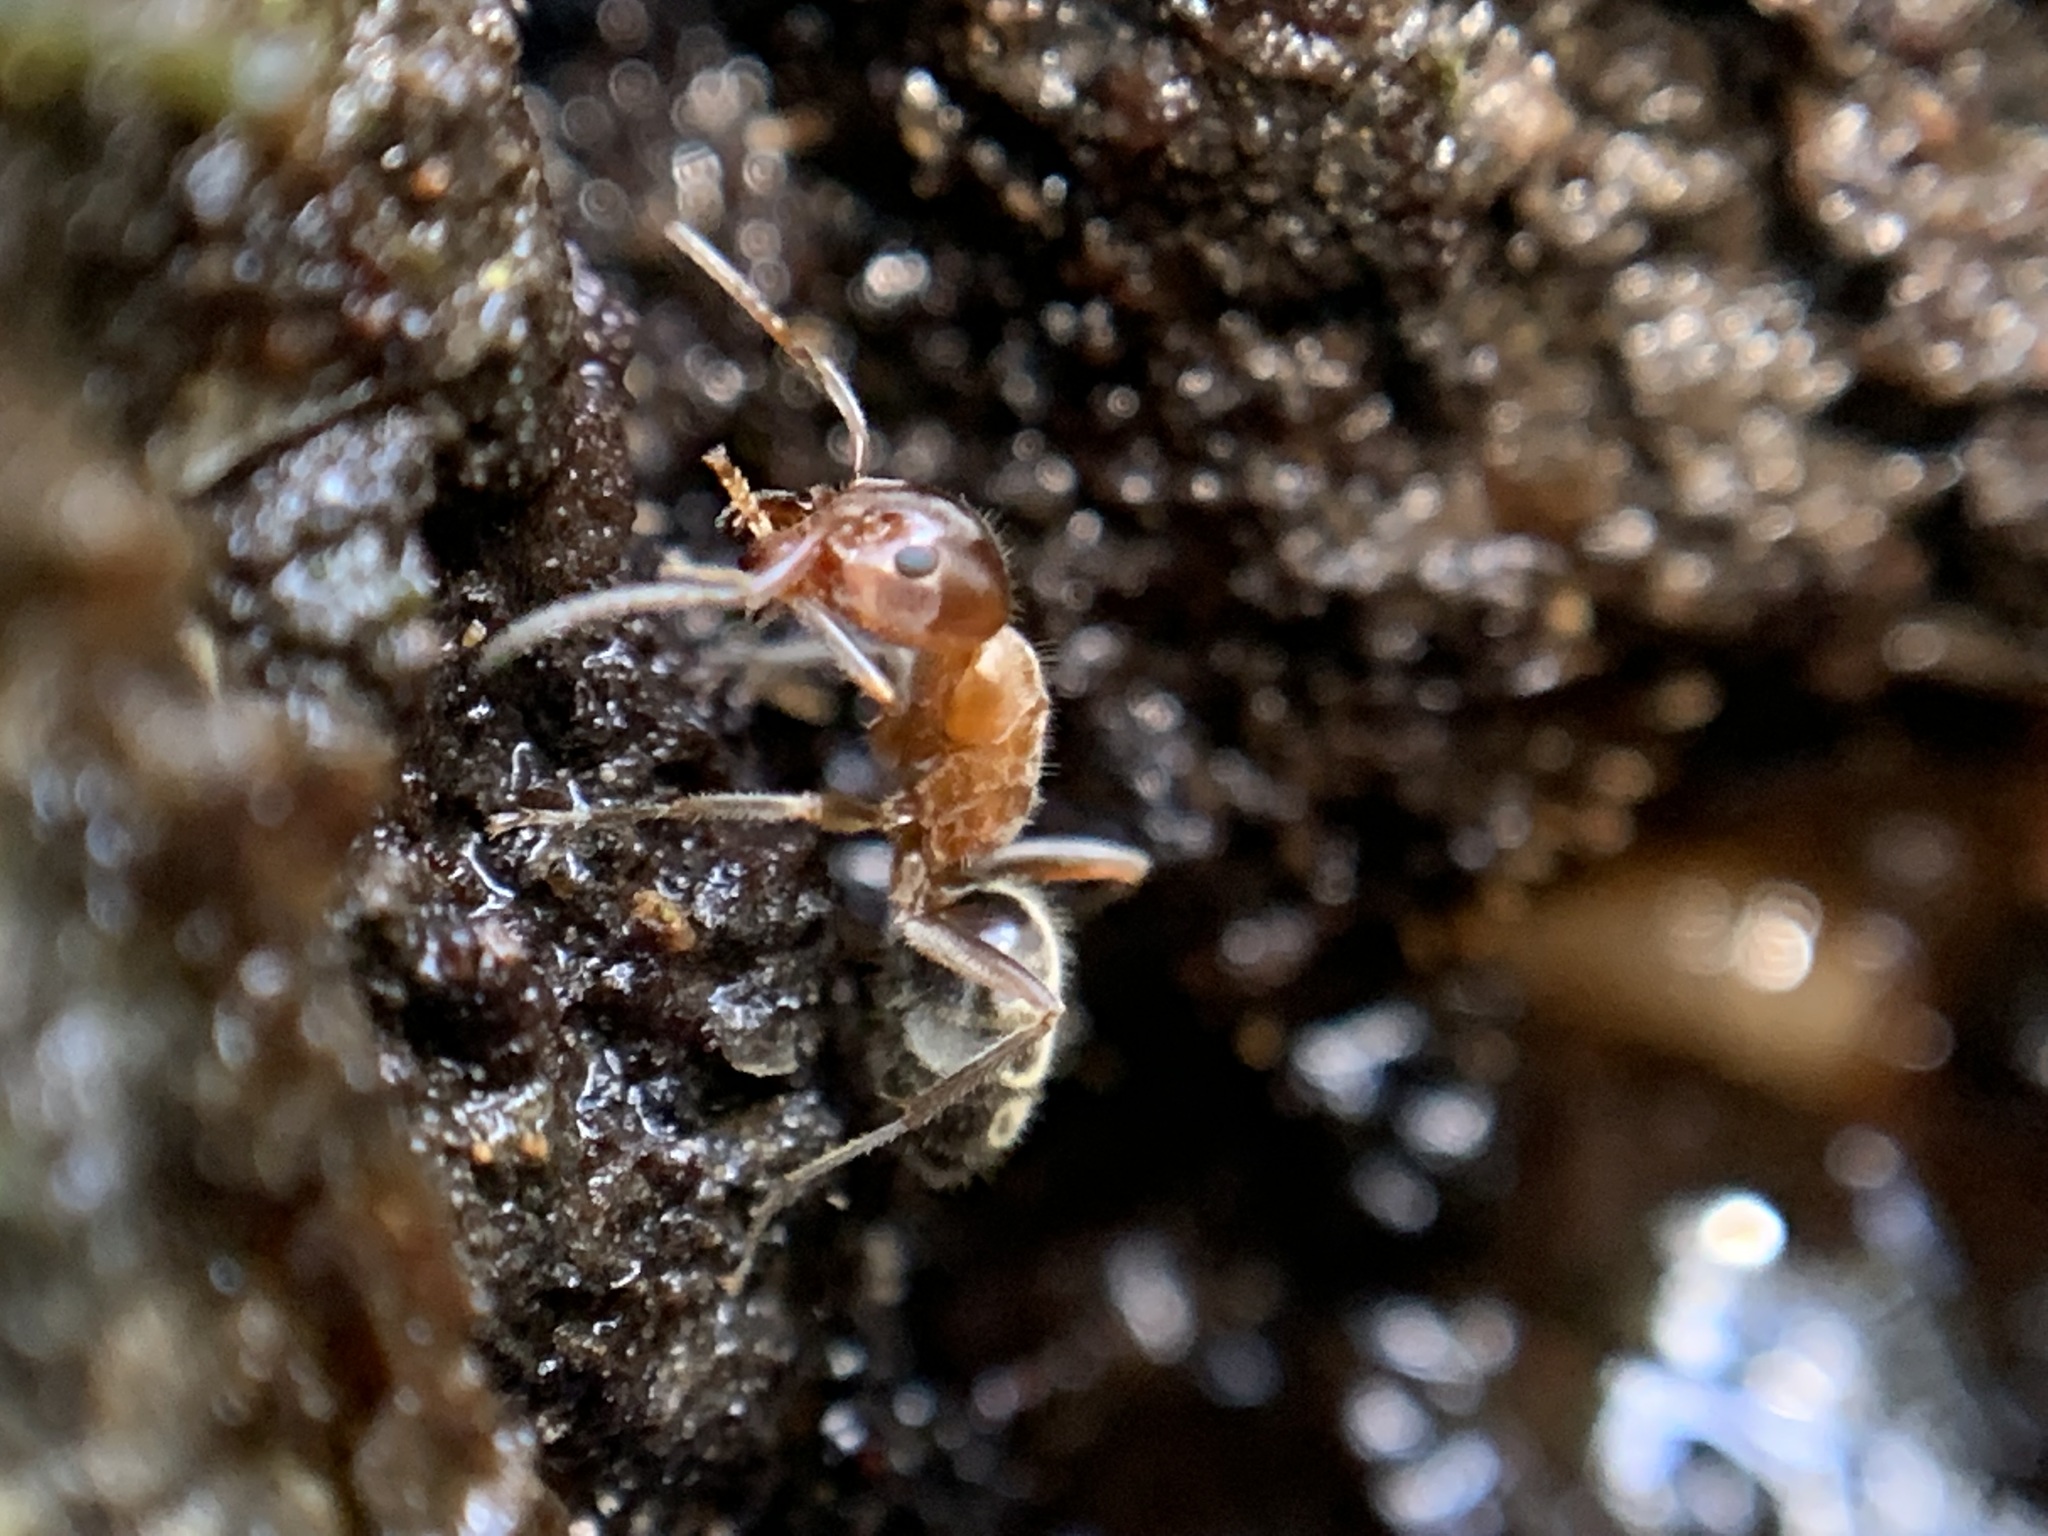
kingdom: Animalia
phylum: Arthropoda
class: Insecta
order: Hymenoptera
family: Formicidae
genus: Liometopum
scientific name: Liometopum occidentale
